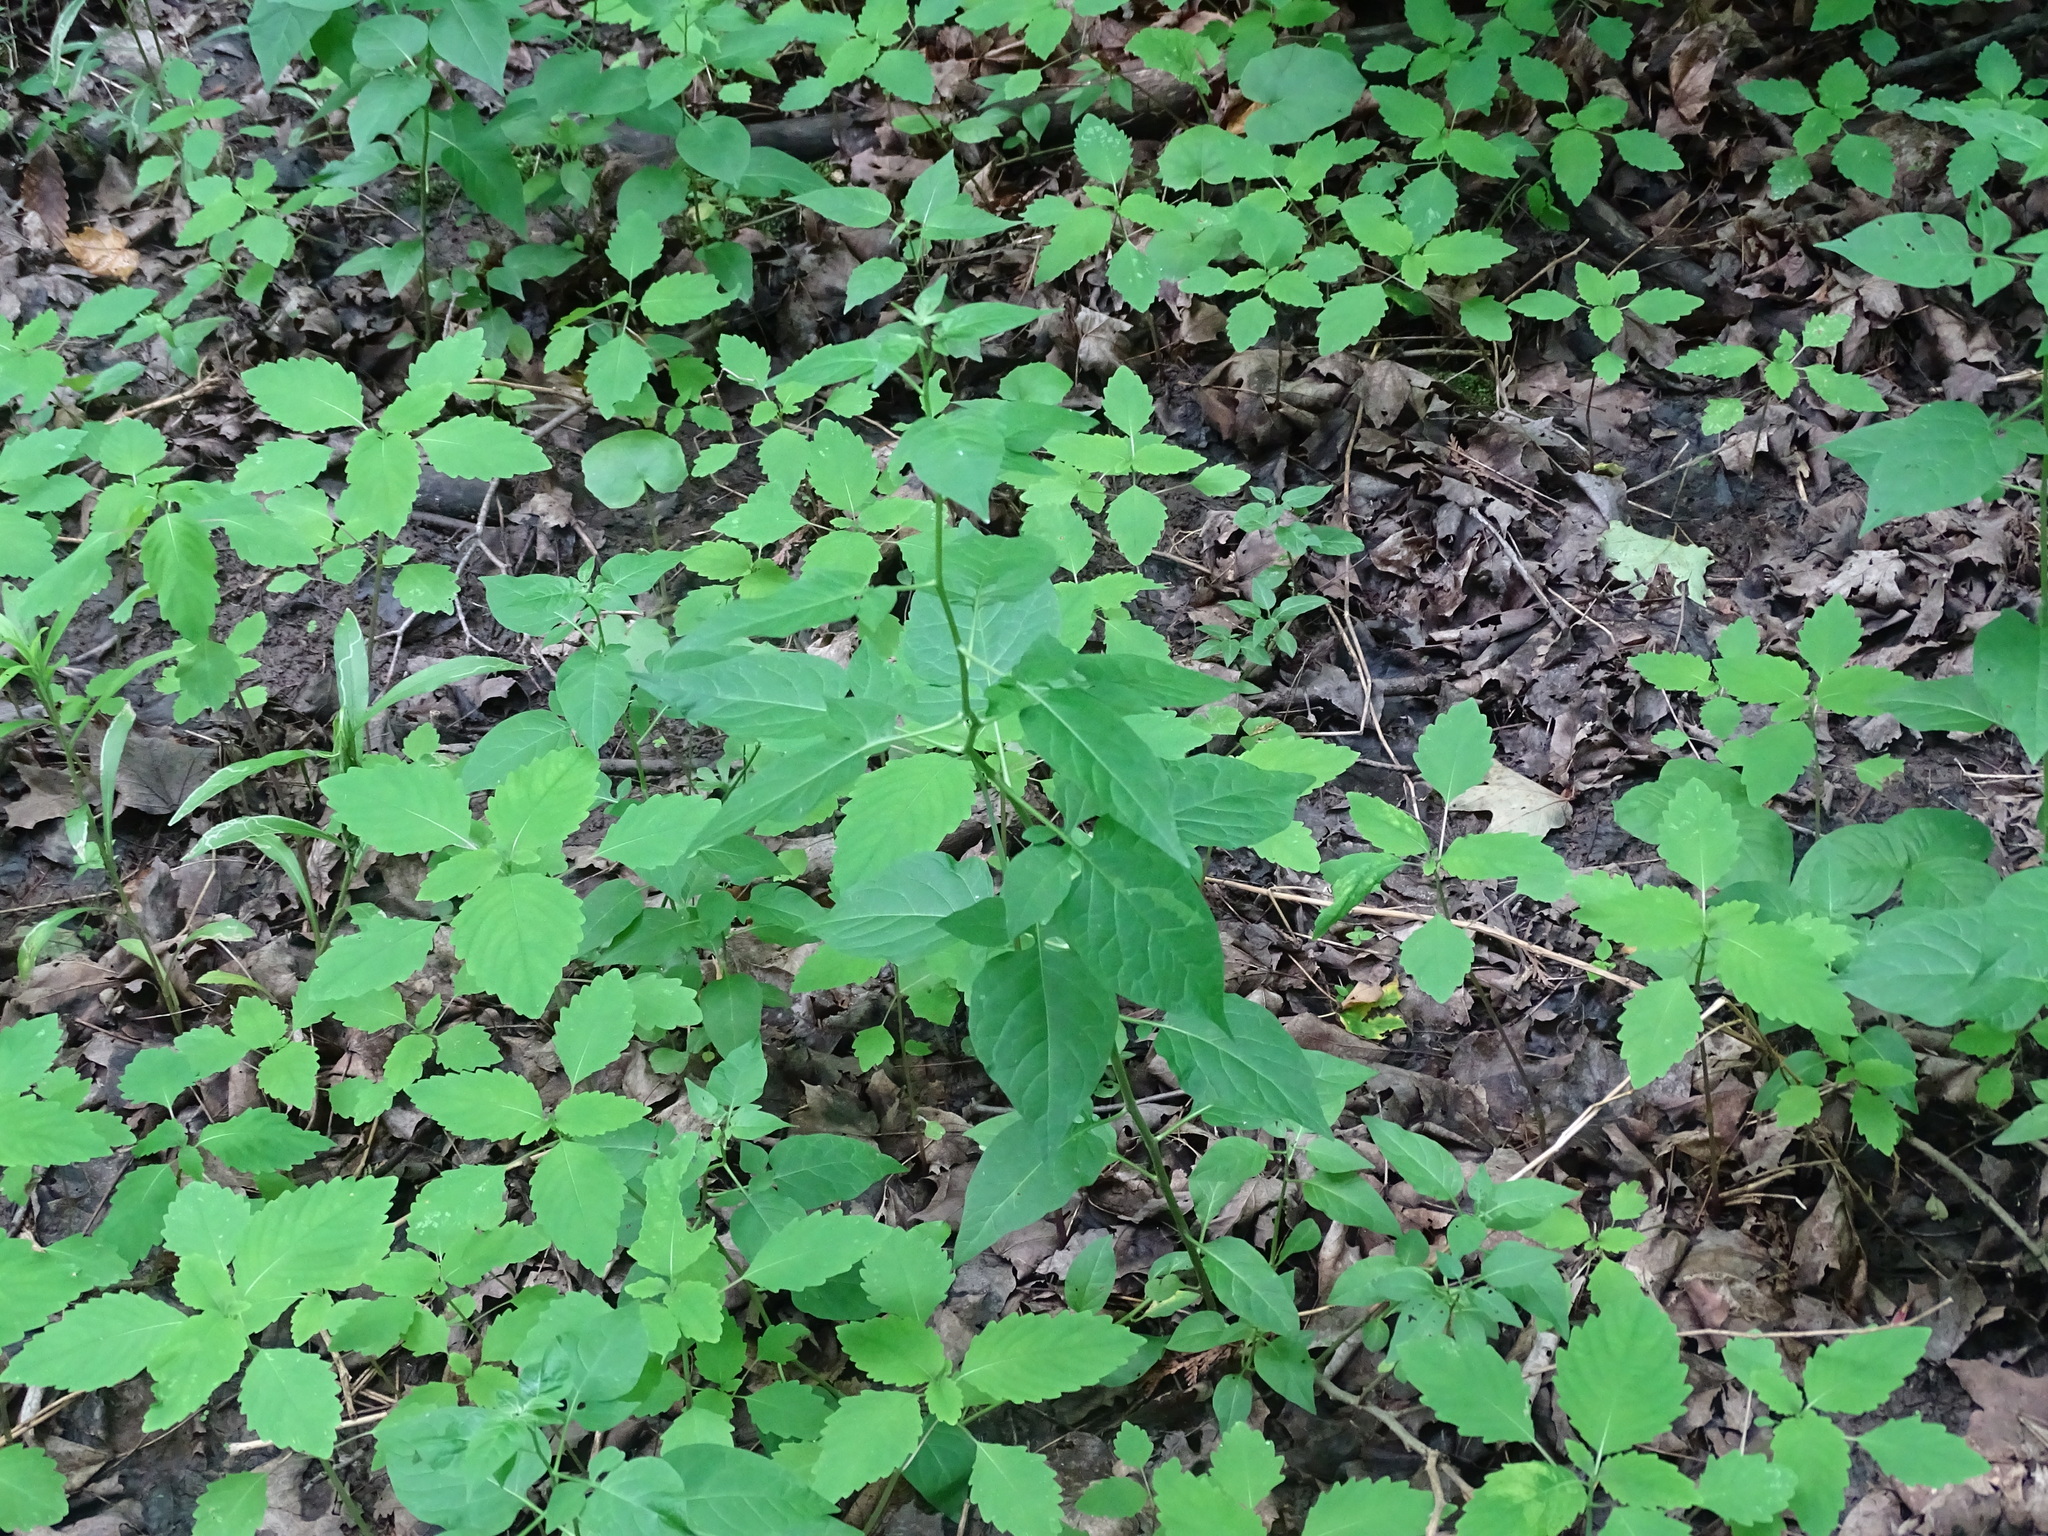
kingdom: Plantae
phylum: Tracheophyta
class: Magnoliopsida
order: Solanales
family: Solanaceae
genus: Solanum
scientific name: Solanum dulcamara
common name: Climbing nightshade
